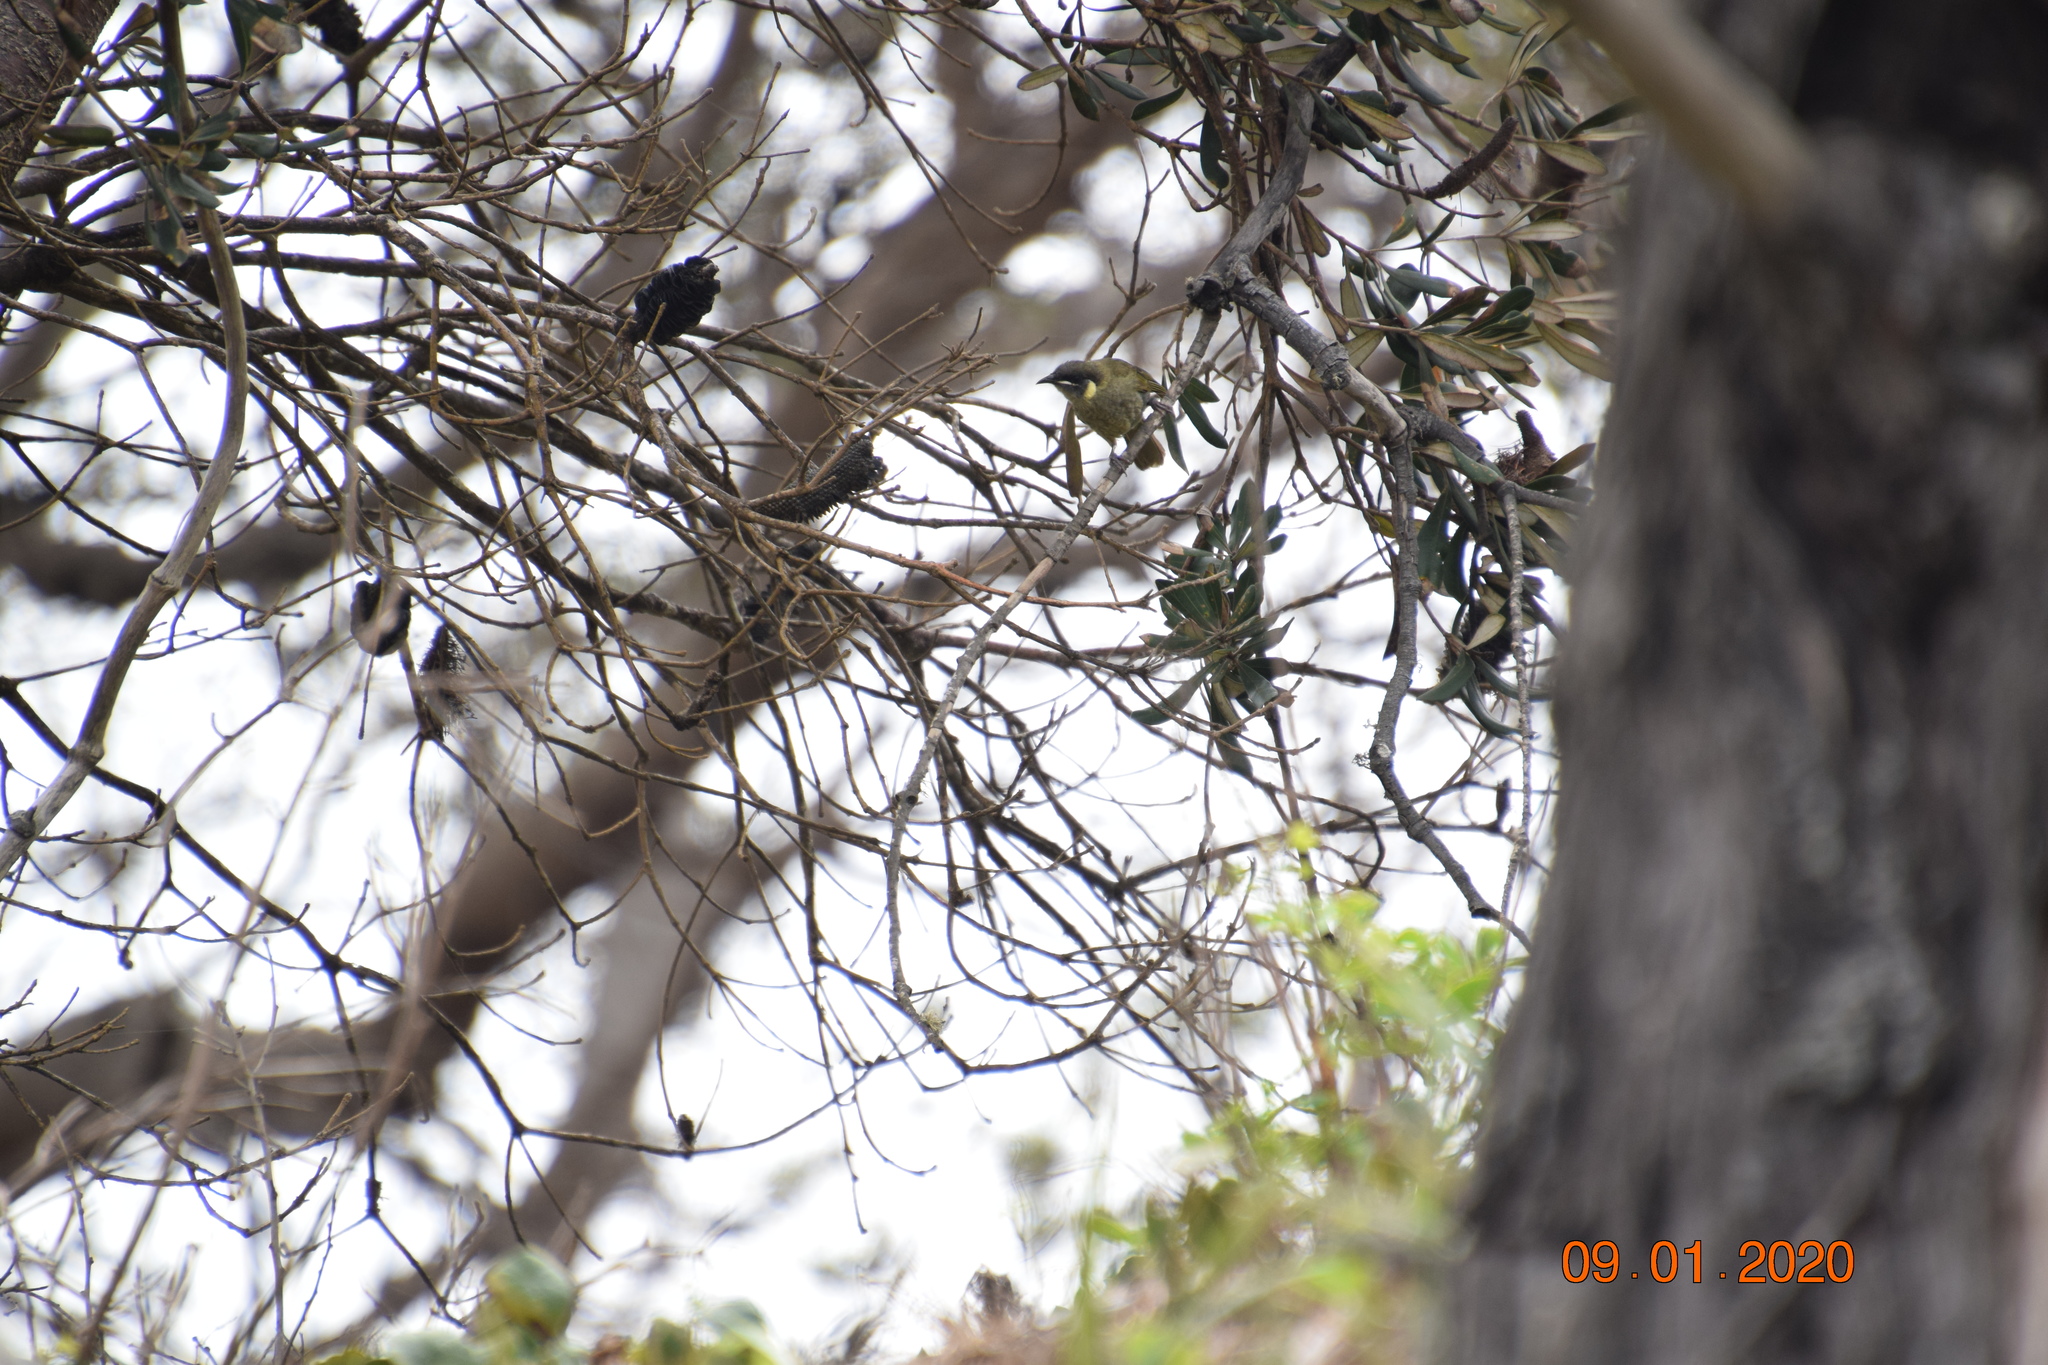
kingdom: Animalia
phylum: Chordata
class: Aves
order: Passeriformes
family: Meliphagidae
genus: Meliphaga
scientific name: Meliphaga lewinii
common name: Lewin's honeyeater
